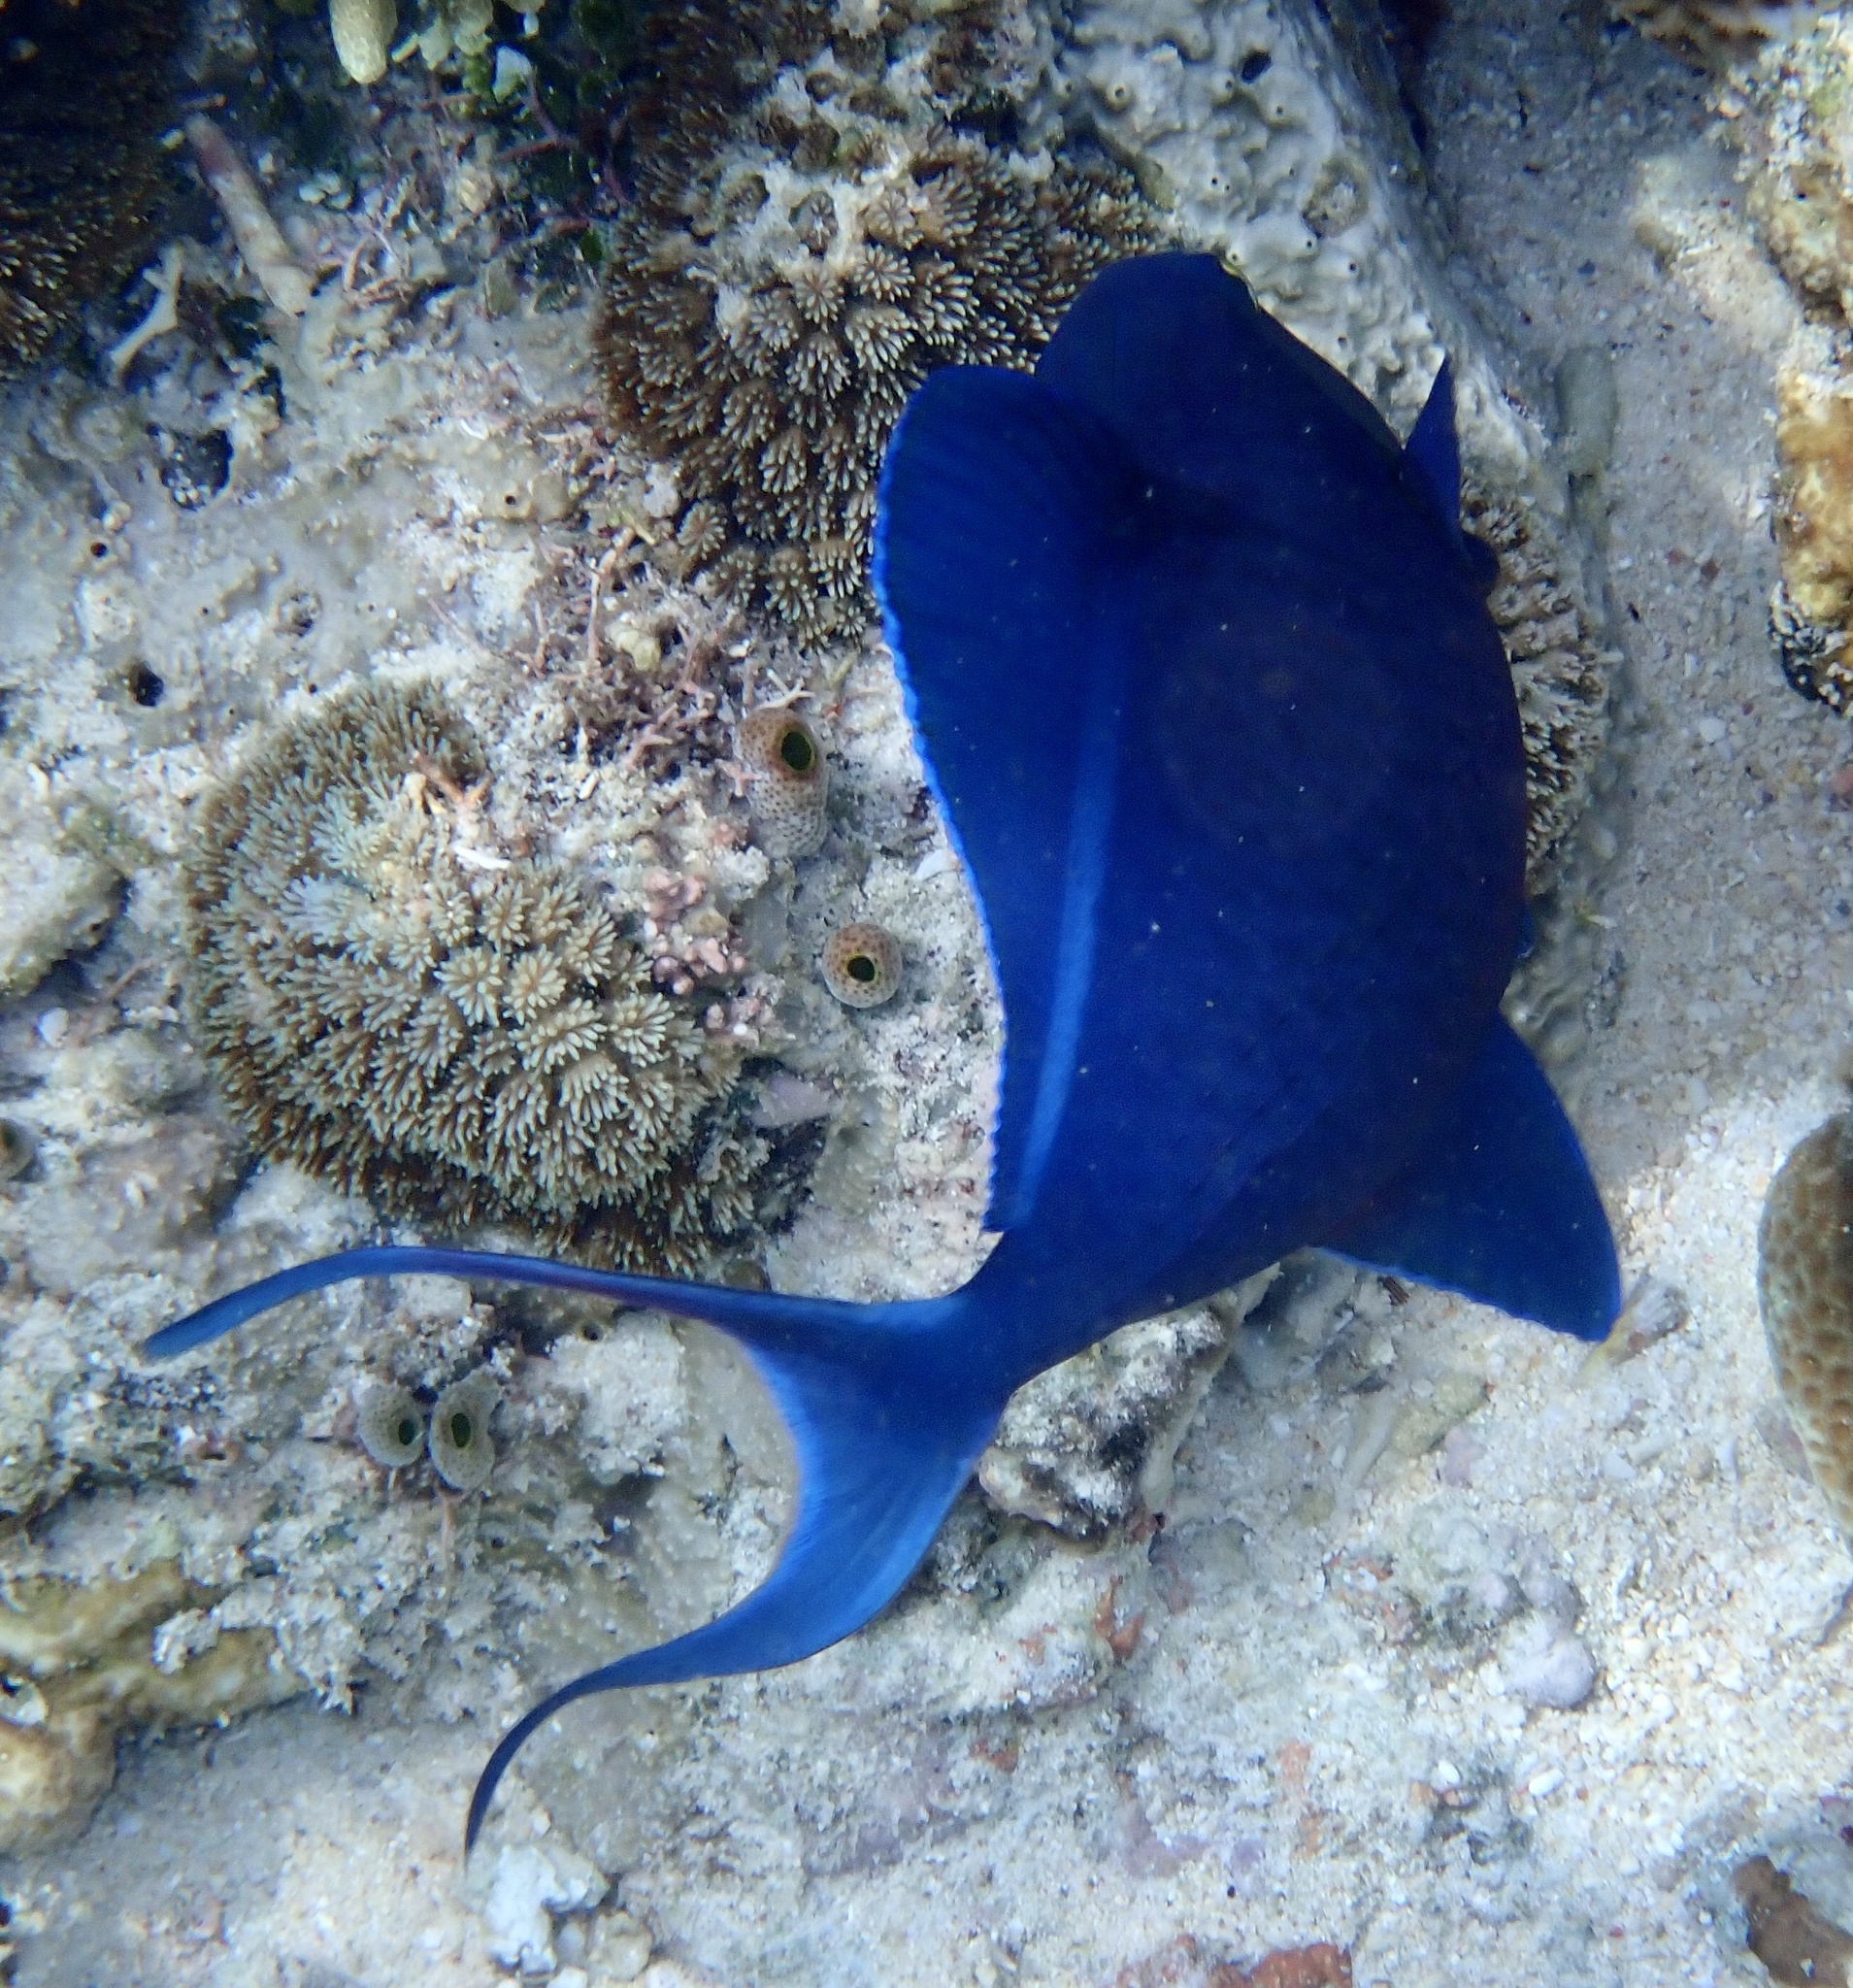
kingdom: Animalia
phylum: Chordata
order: Tetraodontiformes
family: Balistidae
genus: Odonus
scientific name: Odonus niger
